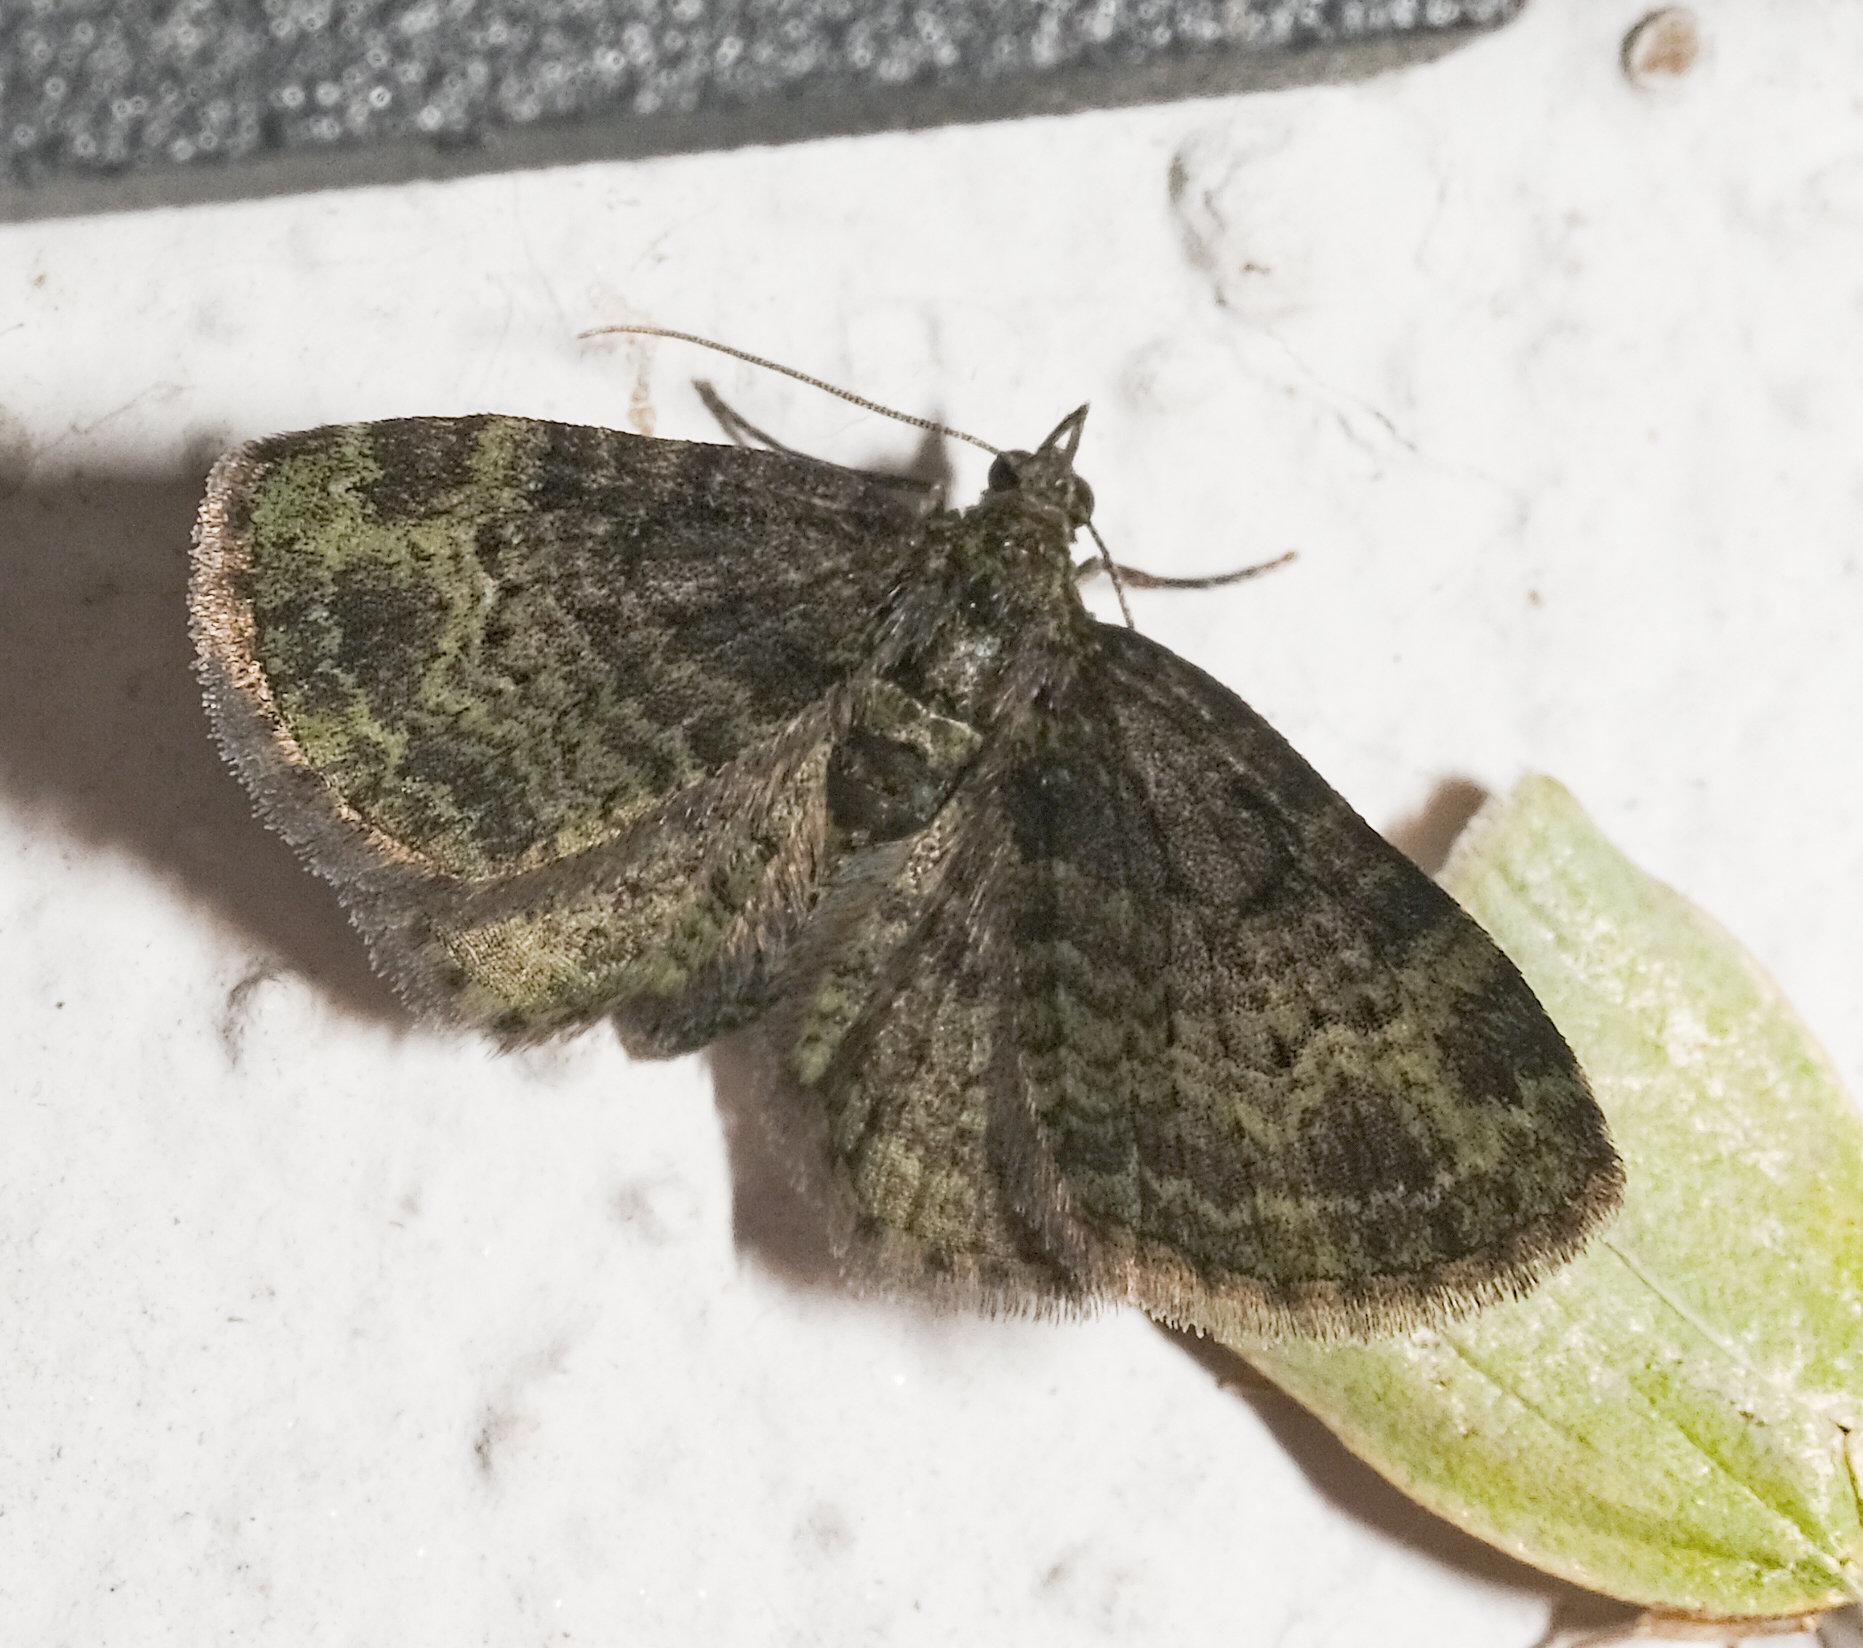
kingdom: Animalia
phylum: Arthropoda
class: Insecta
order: Lepidoptera
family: Geometridae
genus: Pasiphila
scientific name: Pasiphila rectangulata
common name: Green pug
